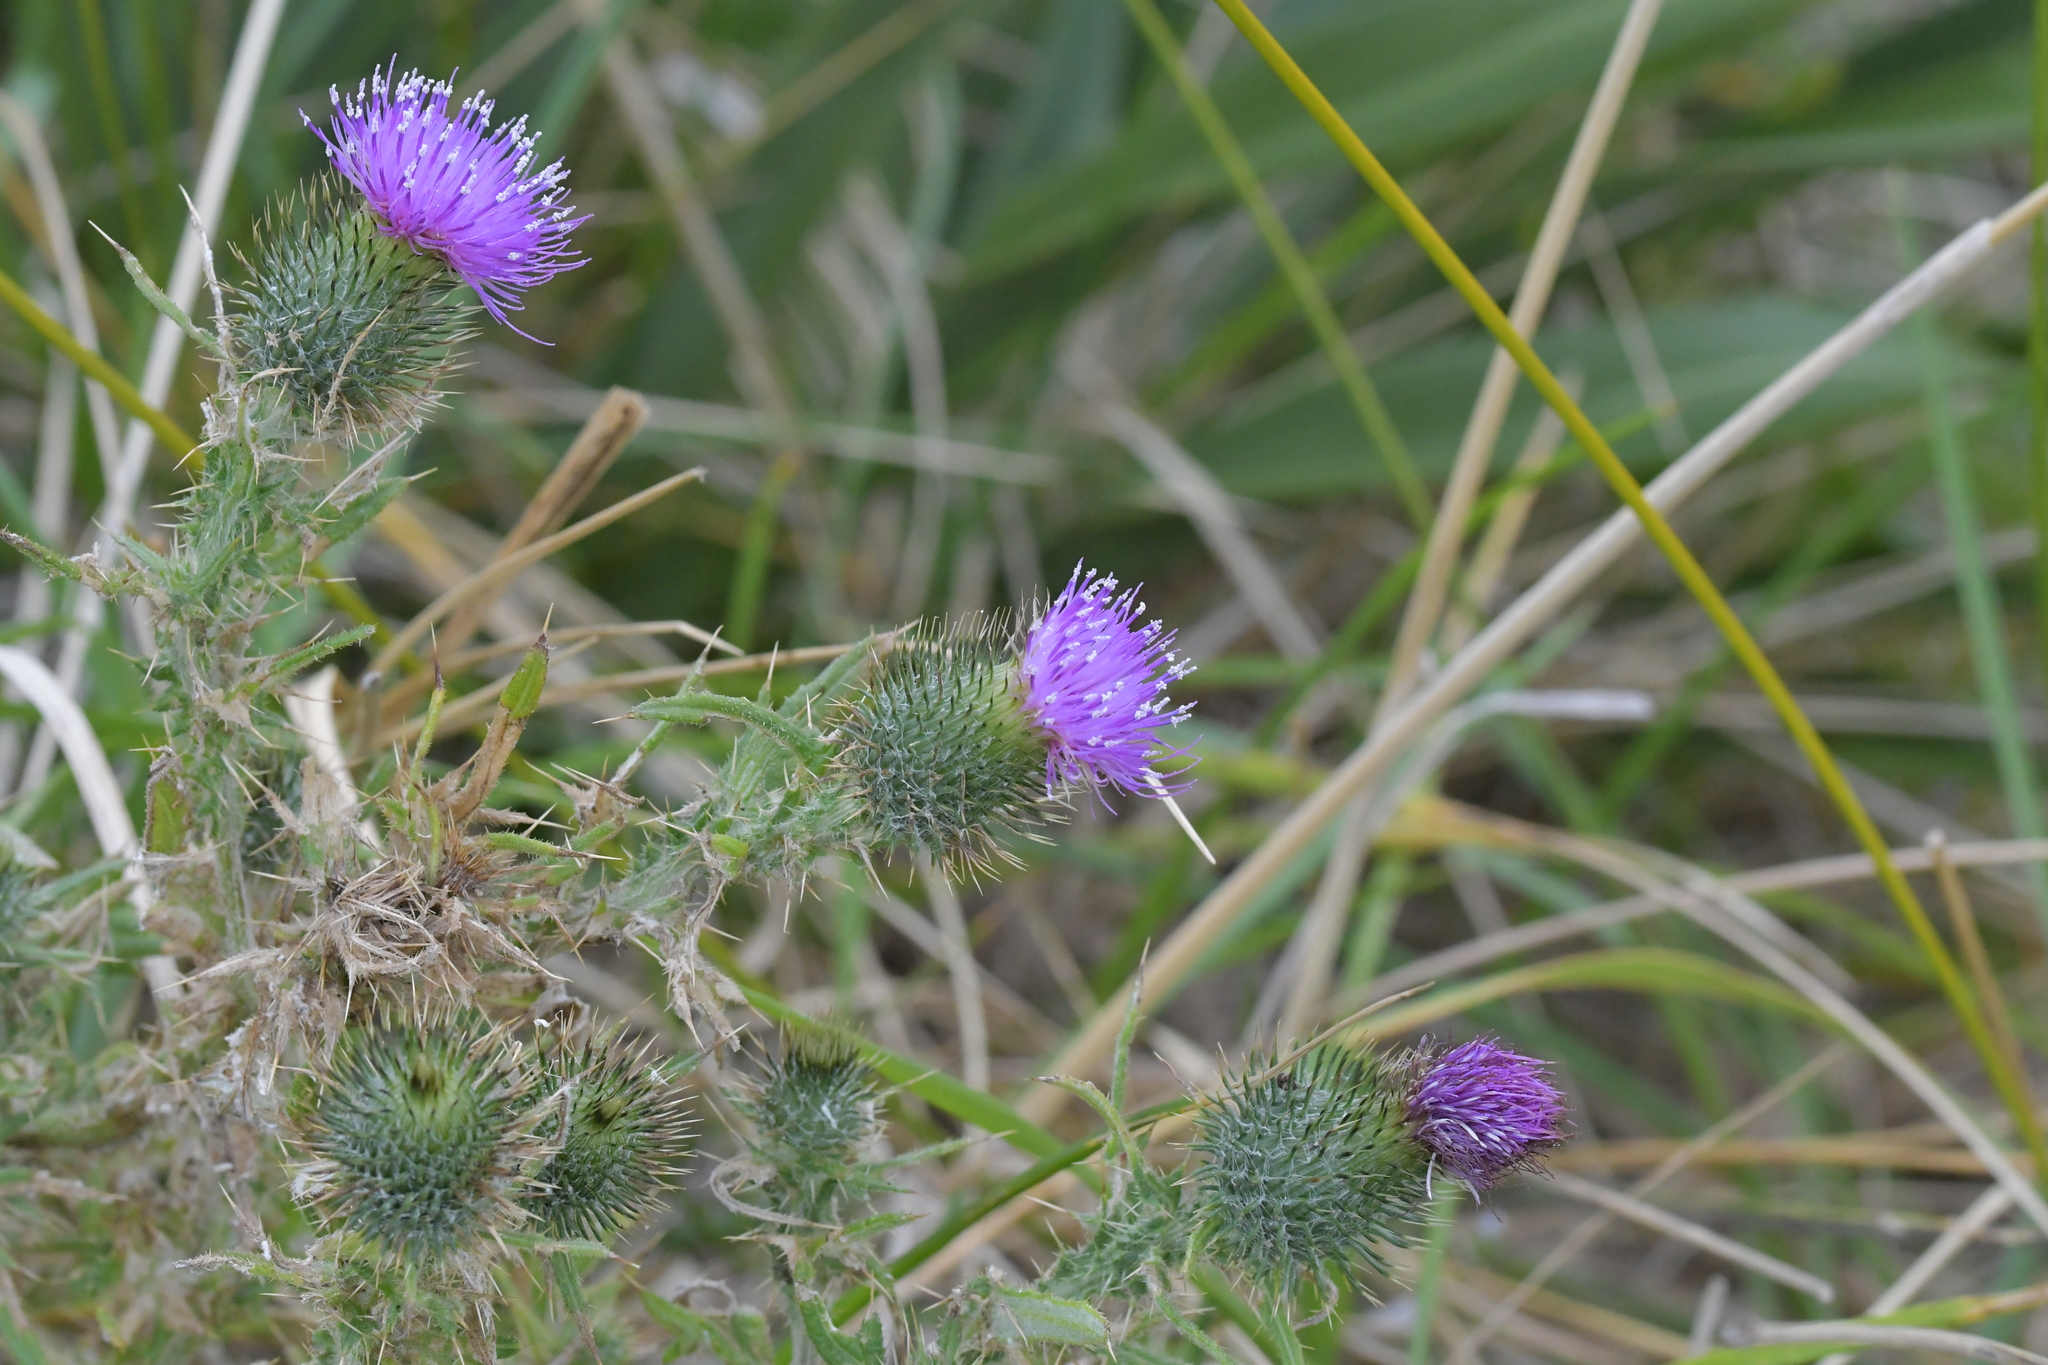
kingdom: Plantae
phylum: Tracheophyta
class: Magnoliopsida
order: Asterales
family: Asteraceae
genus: Cirsium
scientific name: Cirsium vulgare
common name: Bull thistle
